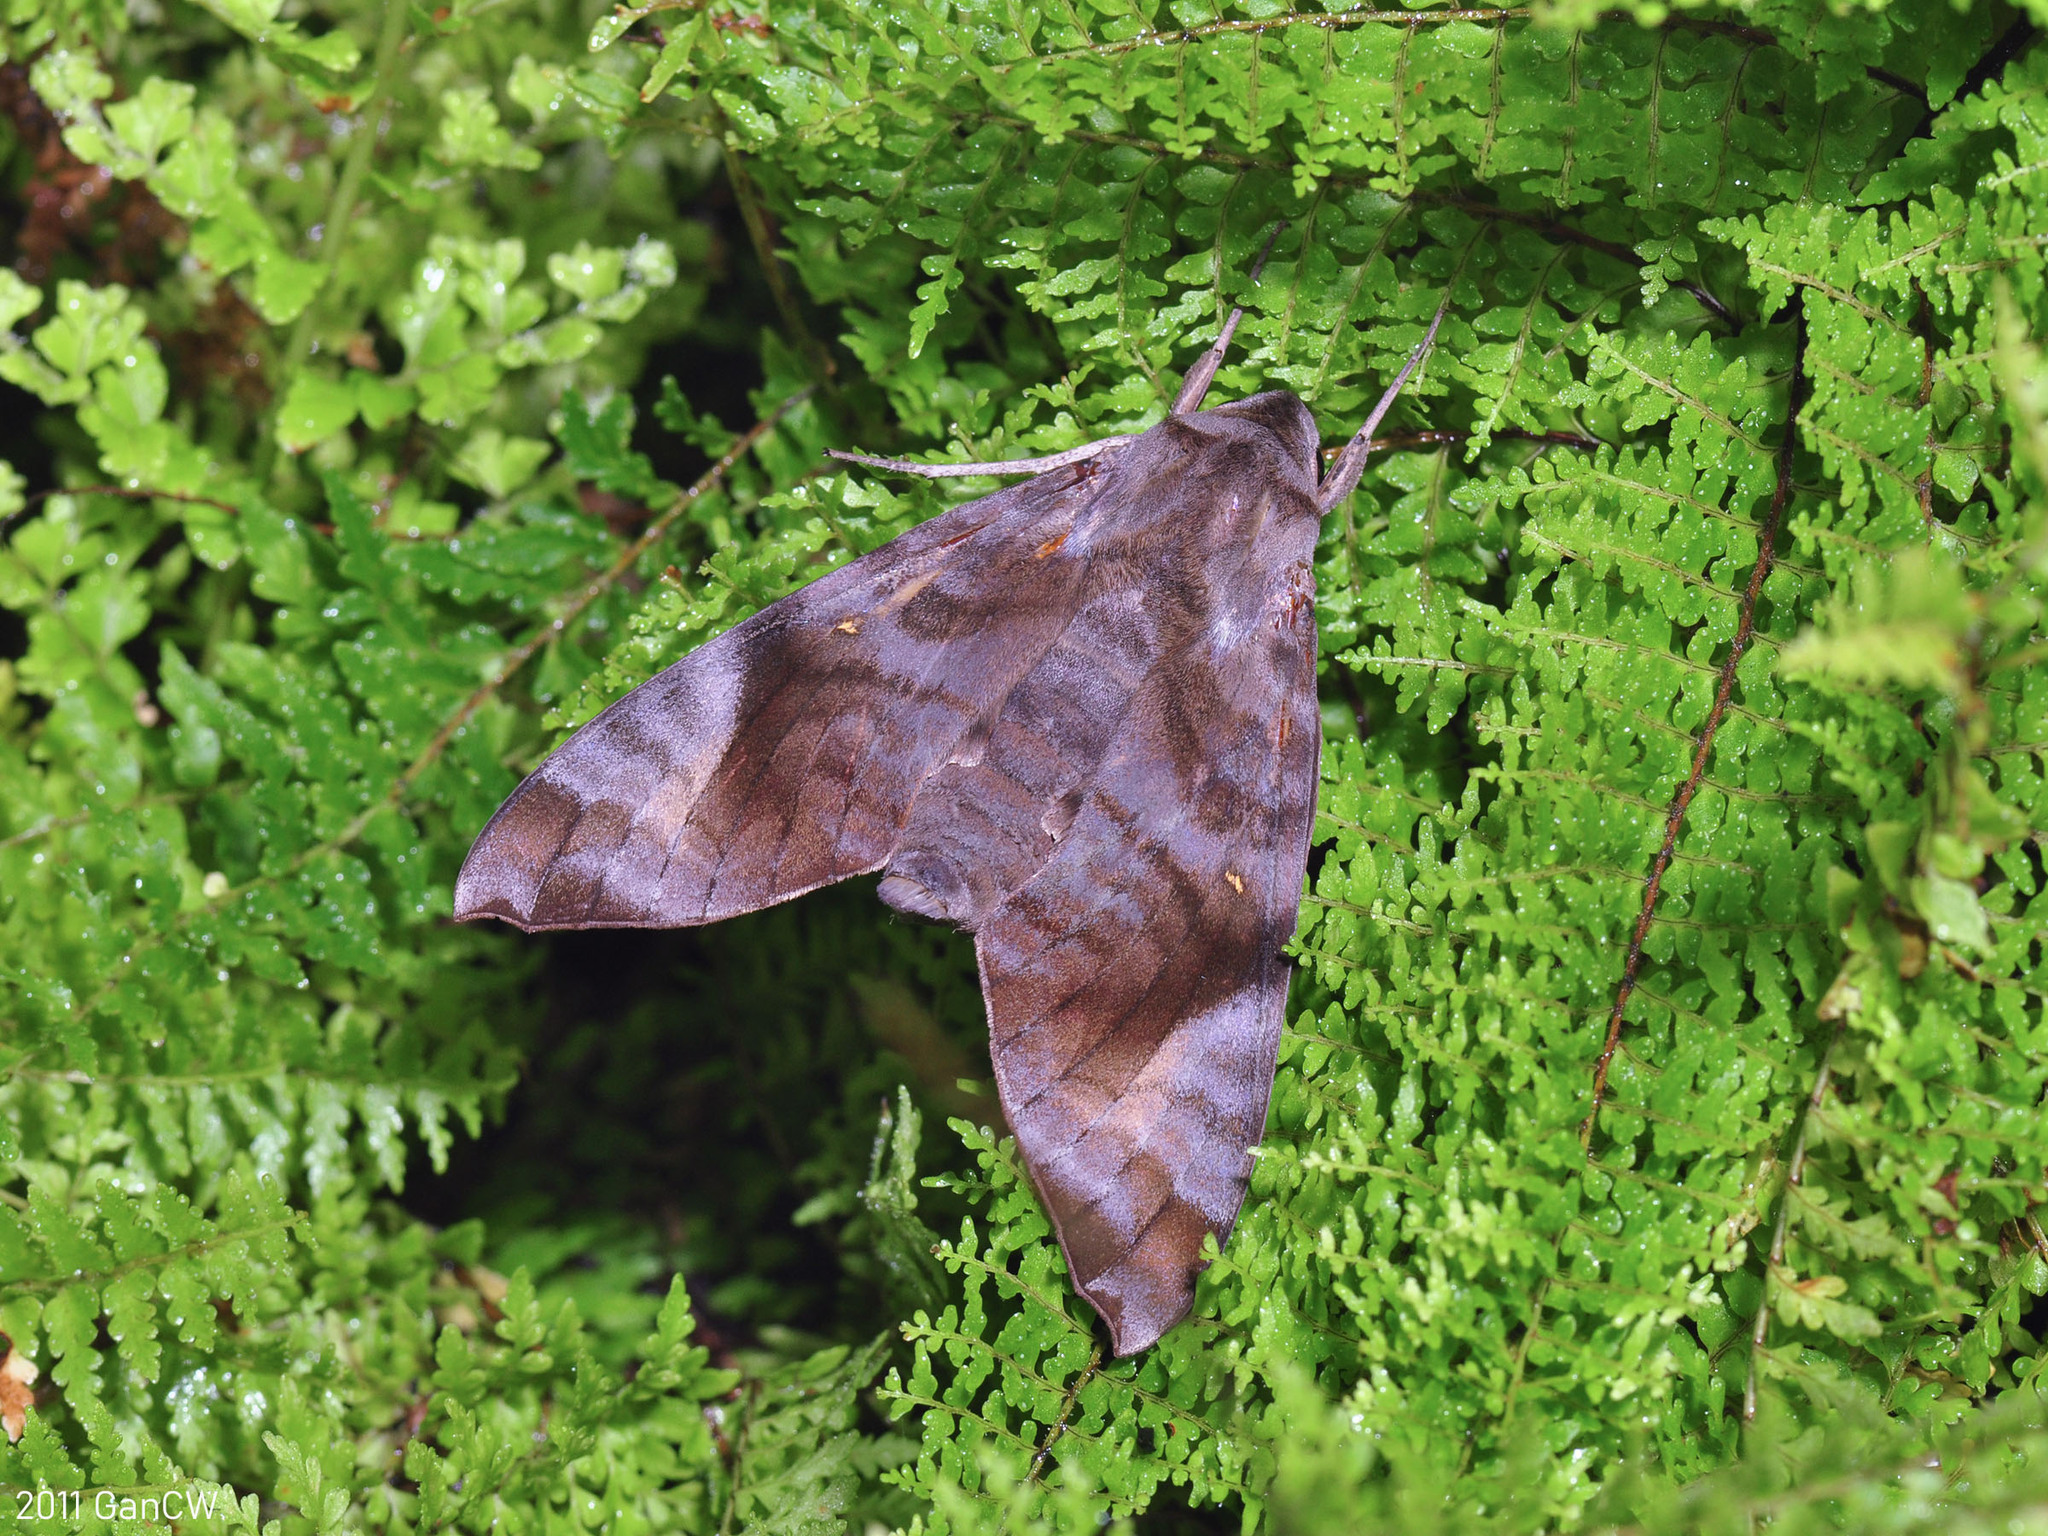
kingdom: Animalia
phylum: Arthropoda
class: Insecta
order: Lepidoptera
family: Sphingidae
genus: Acosmeryx
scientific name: Acosmeryx shervillii
